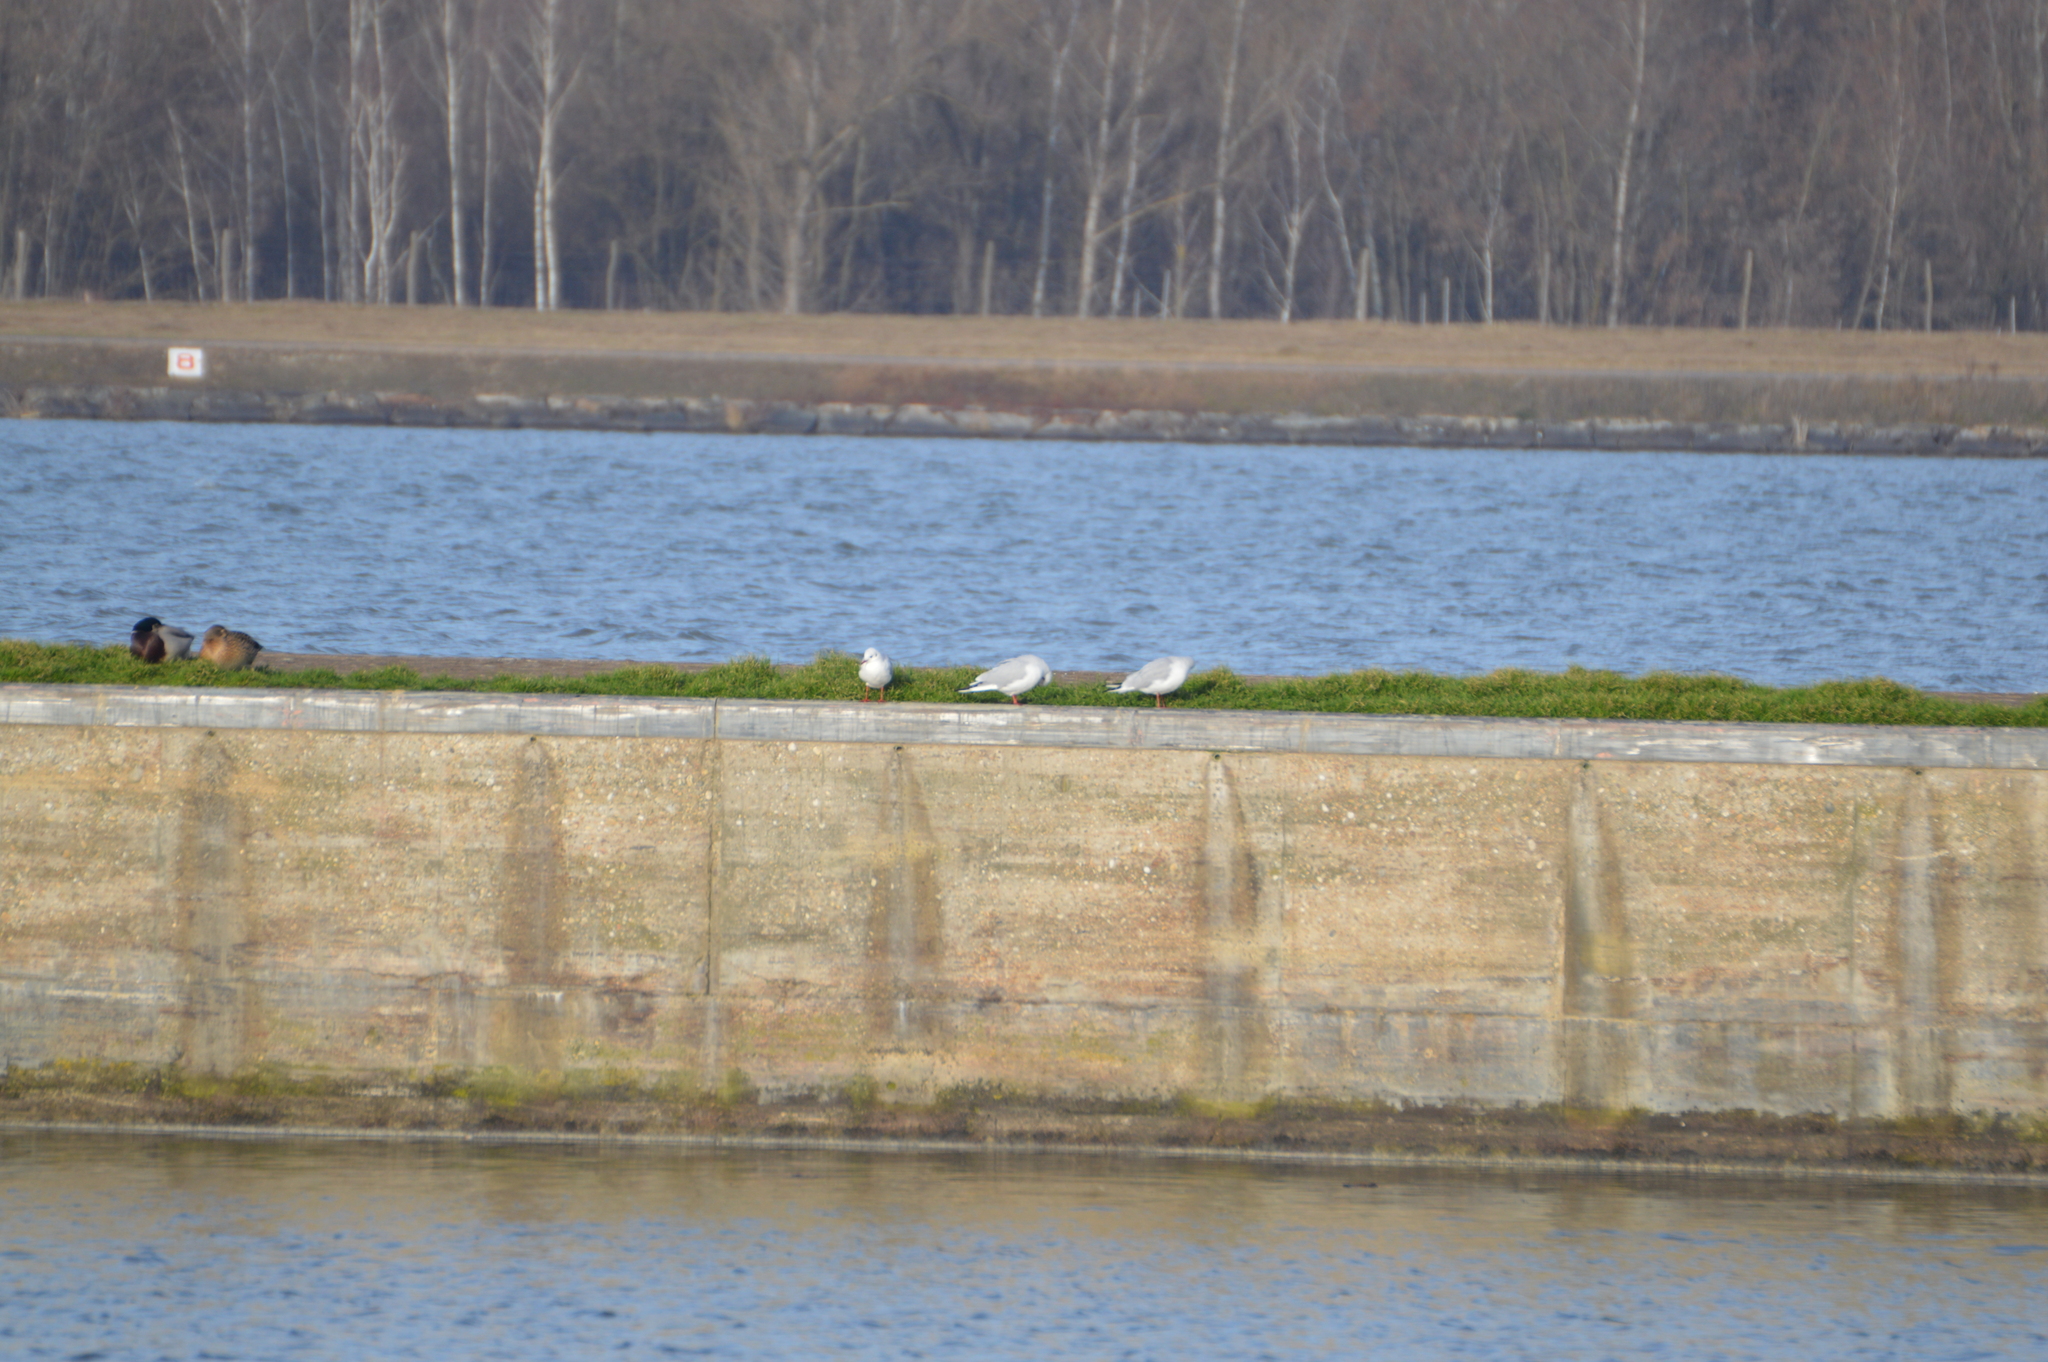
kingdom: Animalia
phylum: Chordata
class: Aves
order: Charadriiformes
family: Laridae
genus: Chroicocephalus
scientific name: Chroicocephalus ridibundus
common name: Black-headed gull
